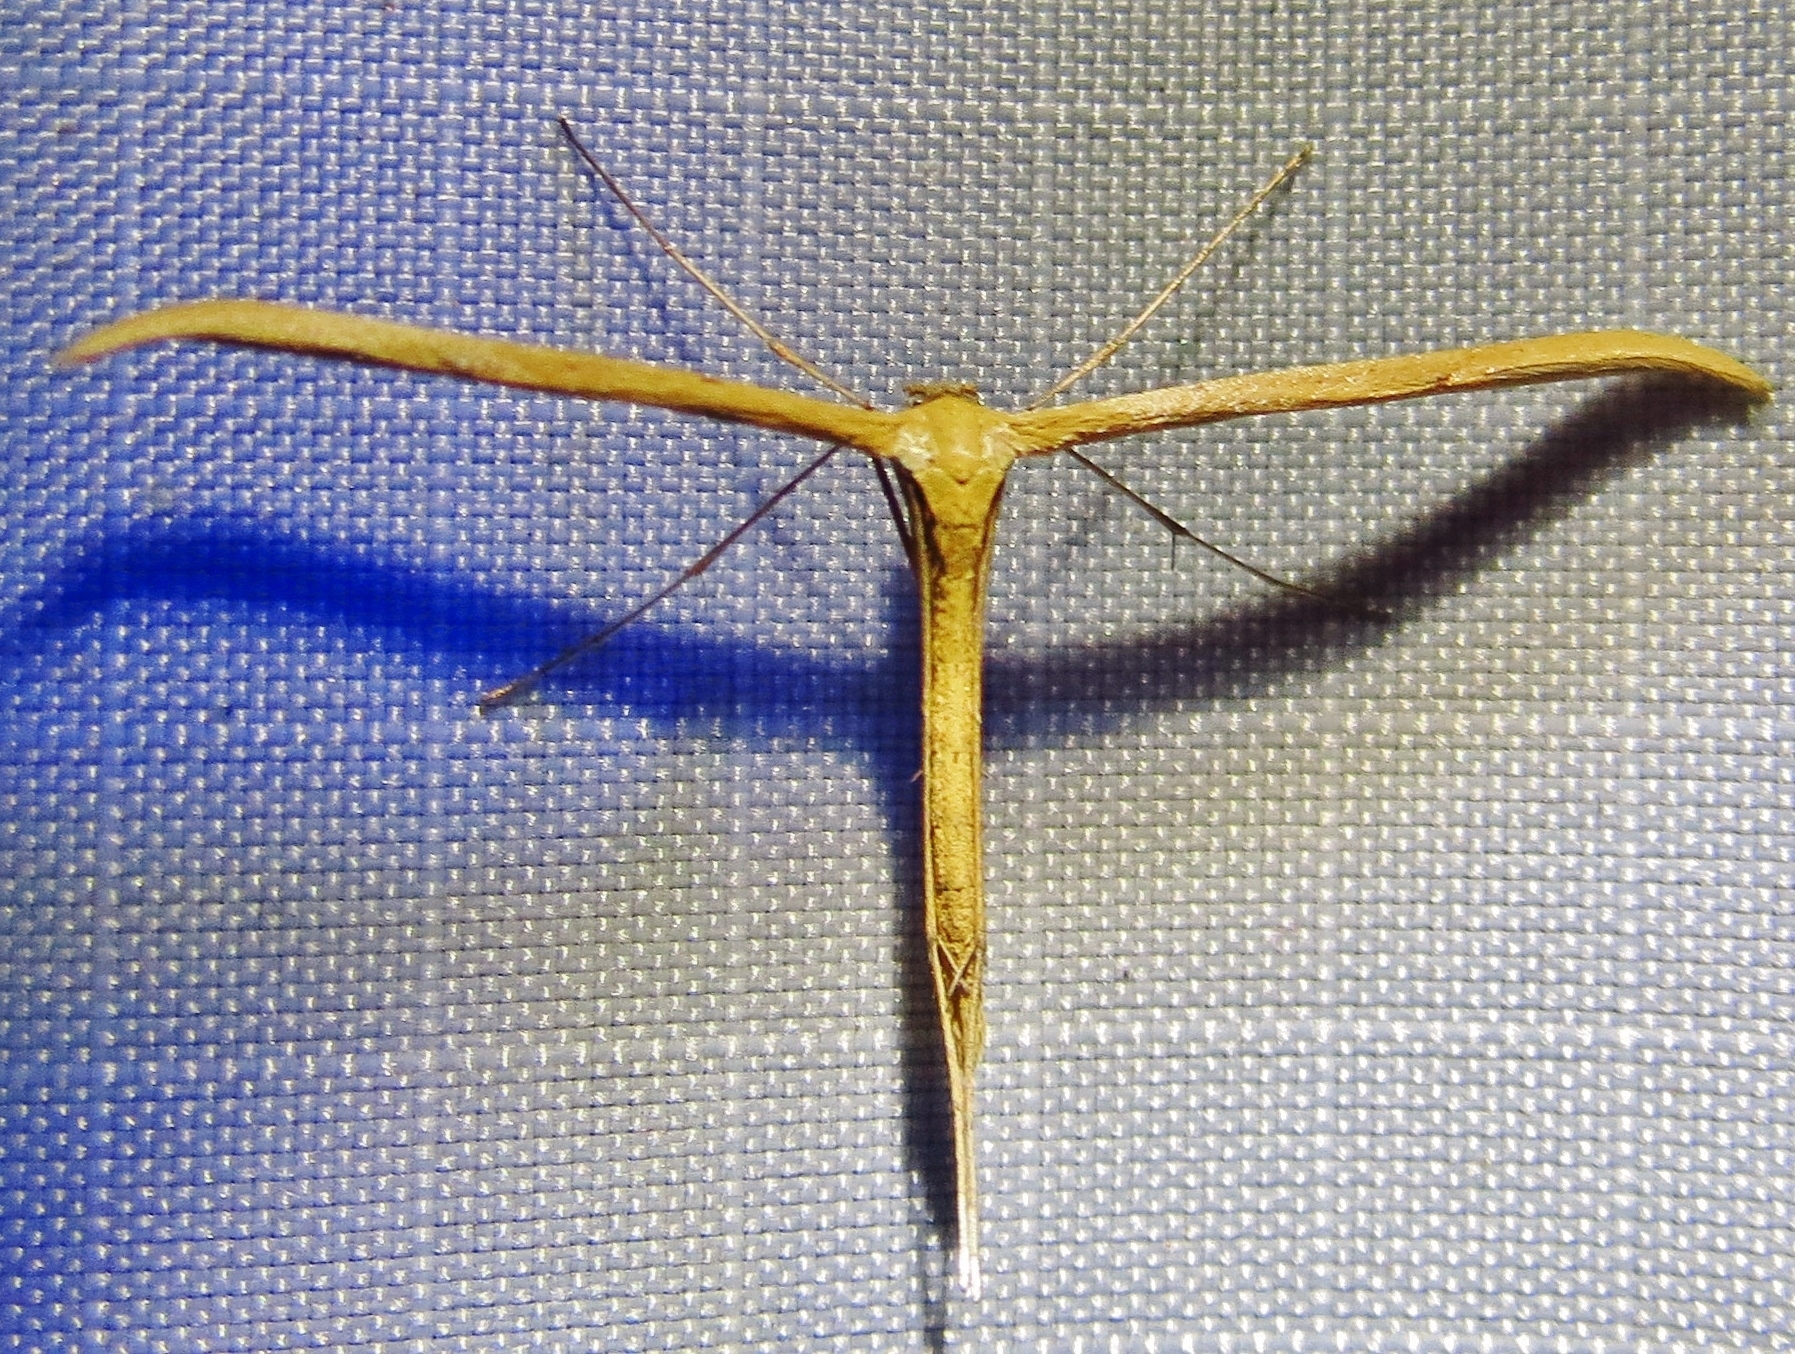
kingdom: Animalia
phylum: Arthropoda
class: Insecta
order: Lepidoptera
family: Pterophoridae
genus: Emmelina
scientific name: Emmelina monodactyla
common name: Common plume
